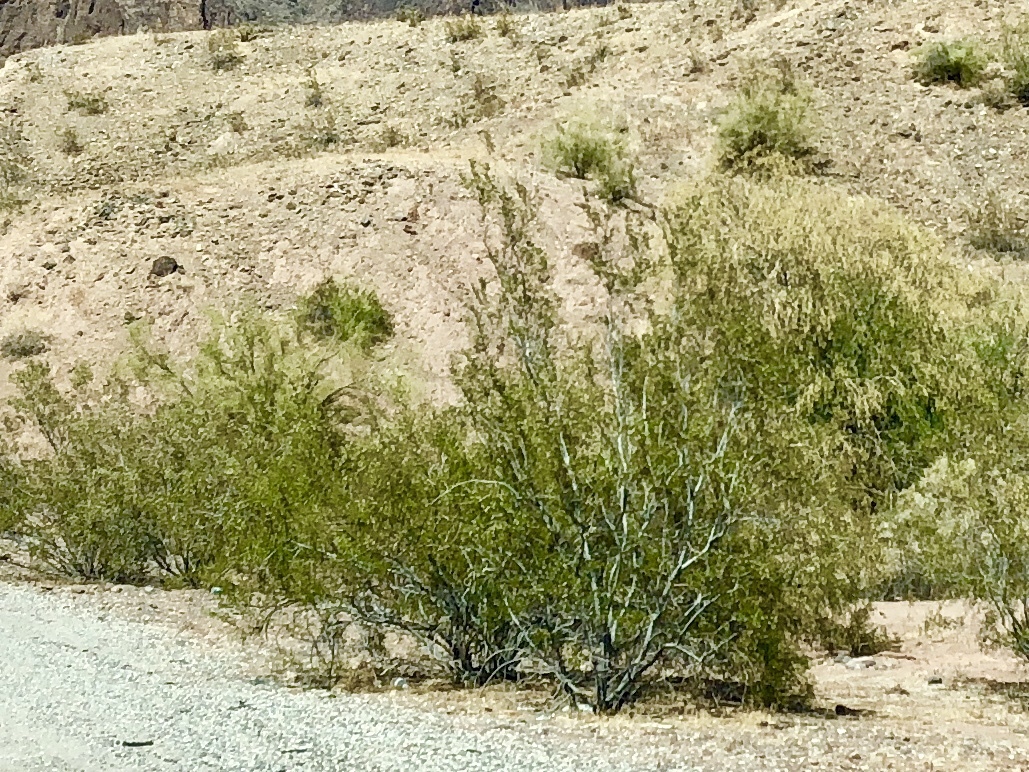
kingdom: Plantae
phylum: Tracheophyta
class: Magnoliopsida
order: Zygophyllales
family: Zygophyllaceae
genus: Larrea
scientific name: Larrea tridentata
